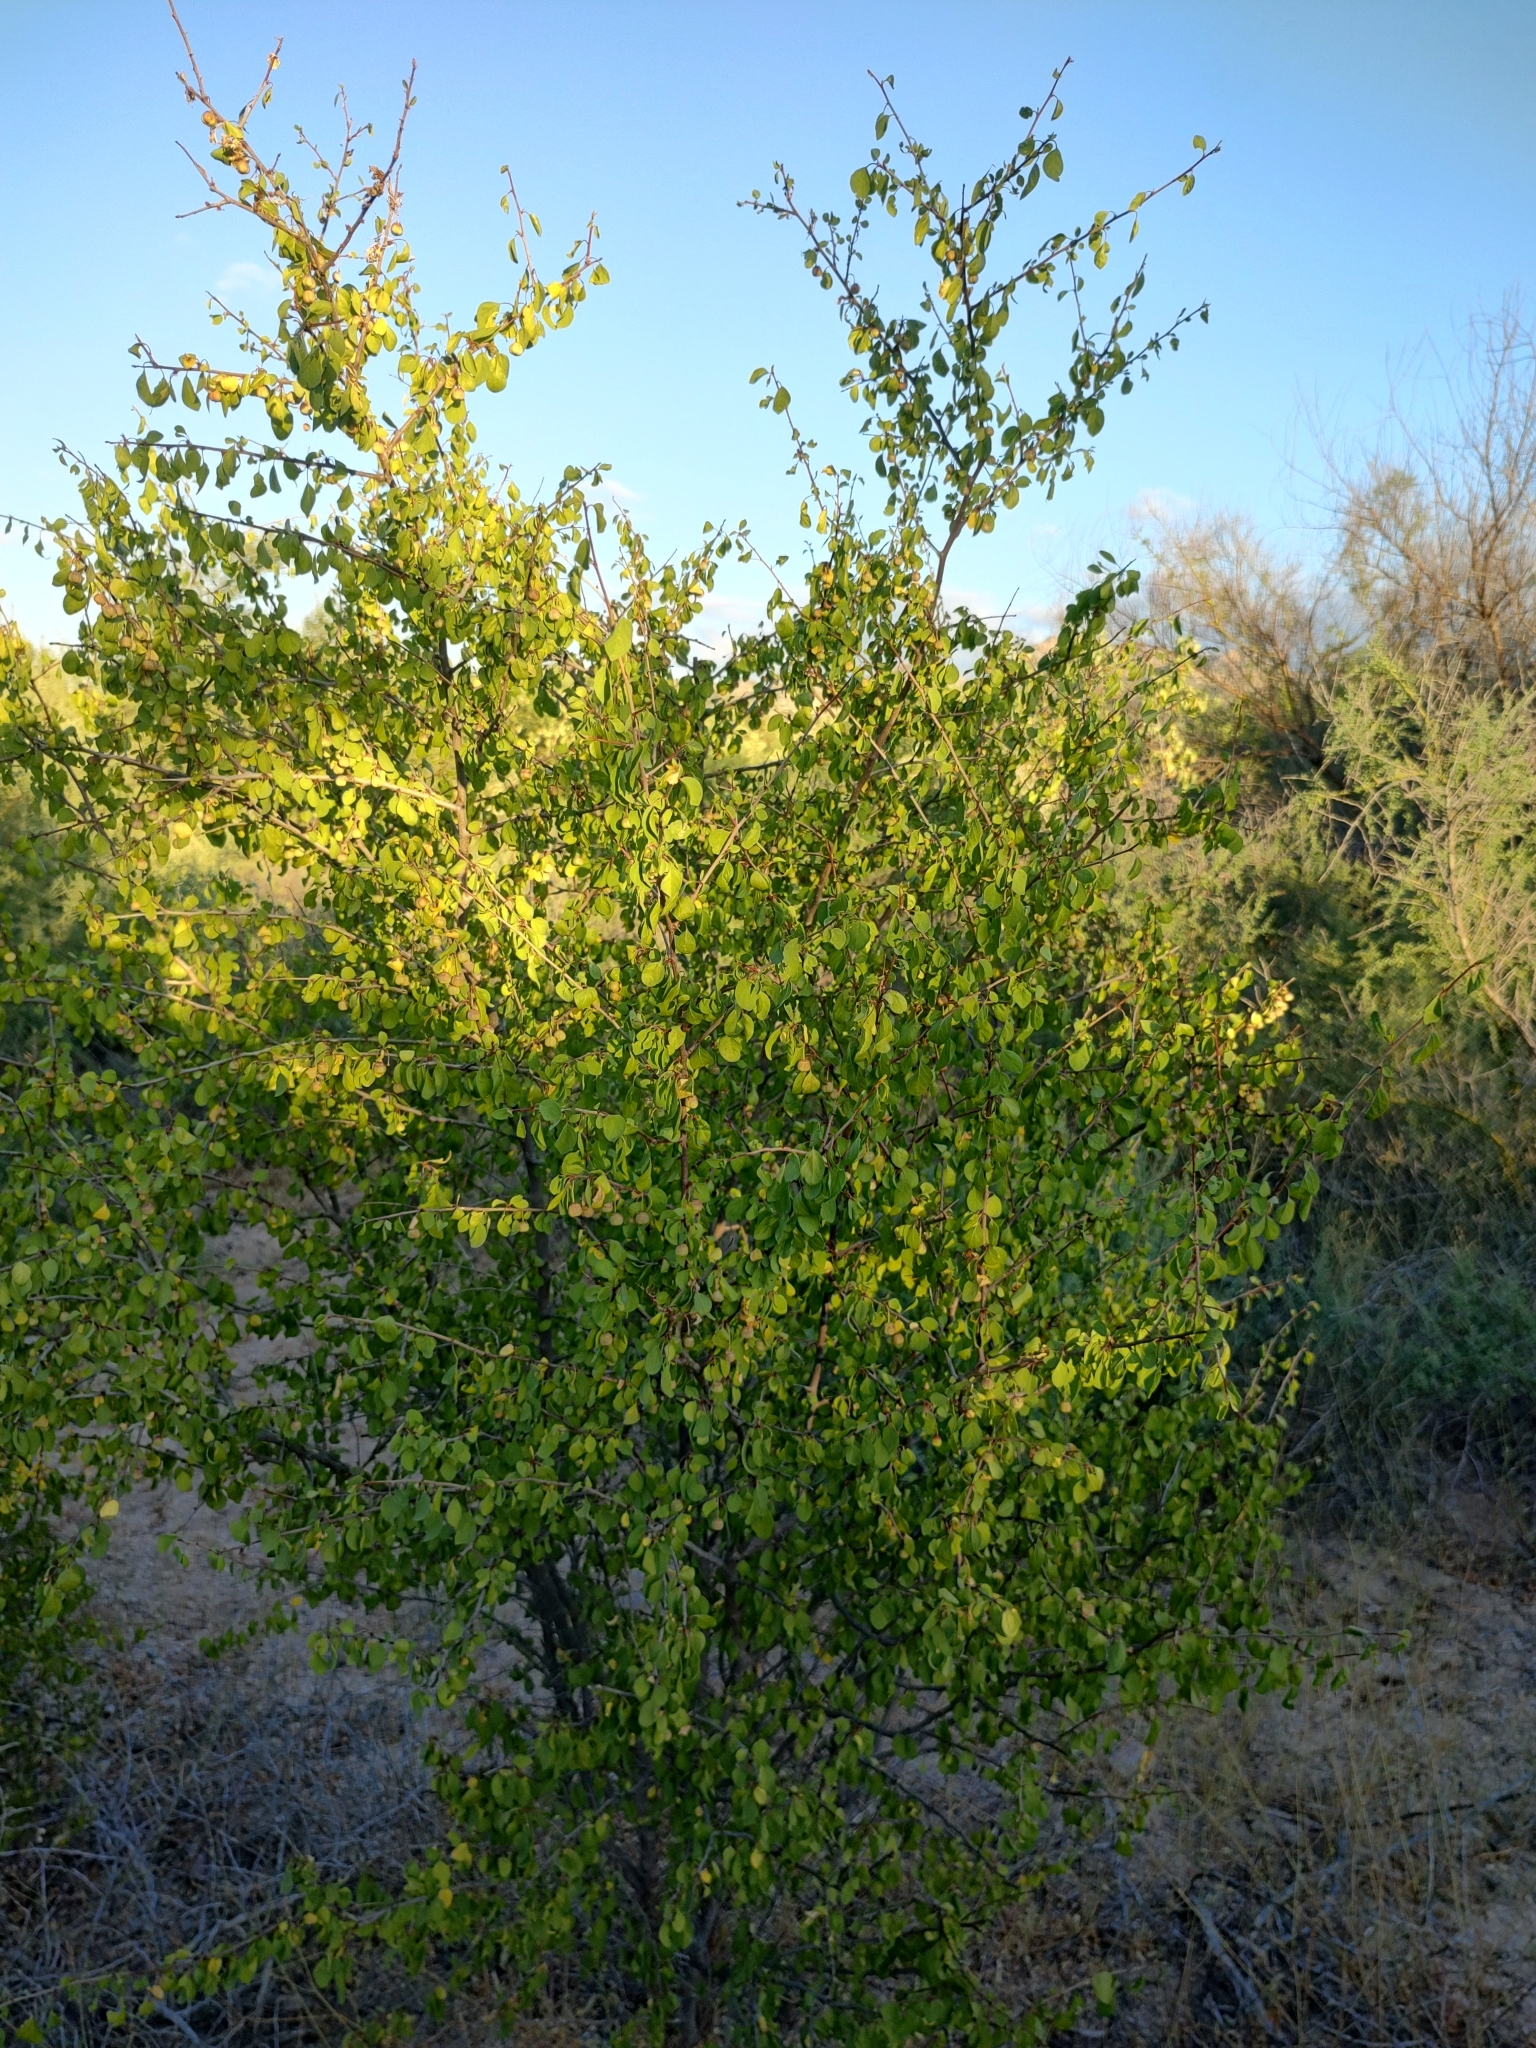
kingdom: Plantae
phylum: Tracheophyta
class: Magnoliopsida
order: Rosales
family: Rhamnaceae
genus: Colubrina
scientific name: Colubrina viridis
